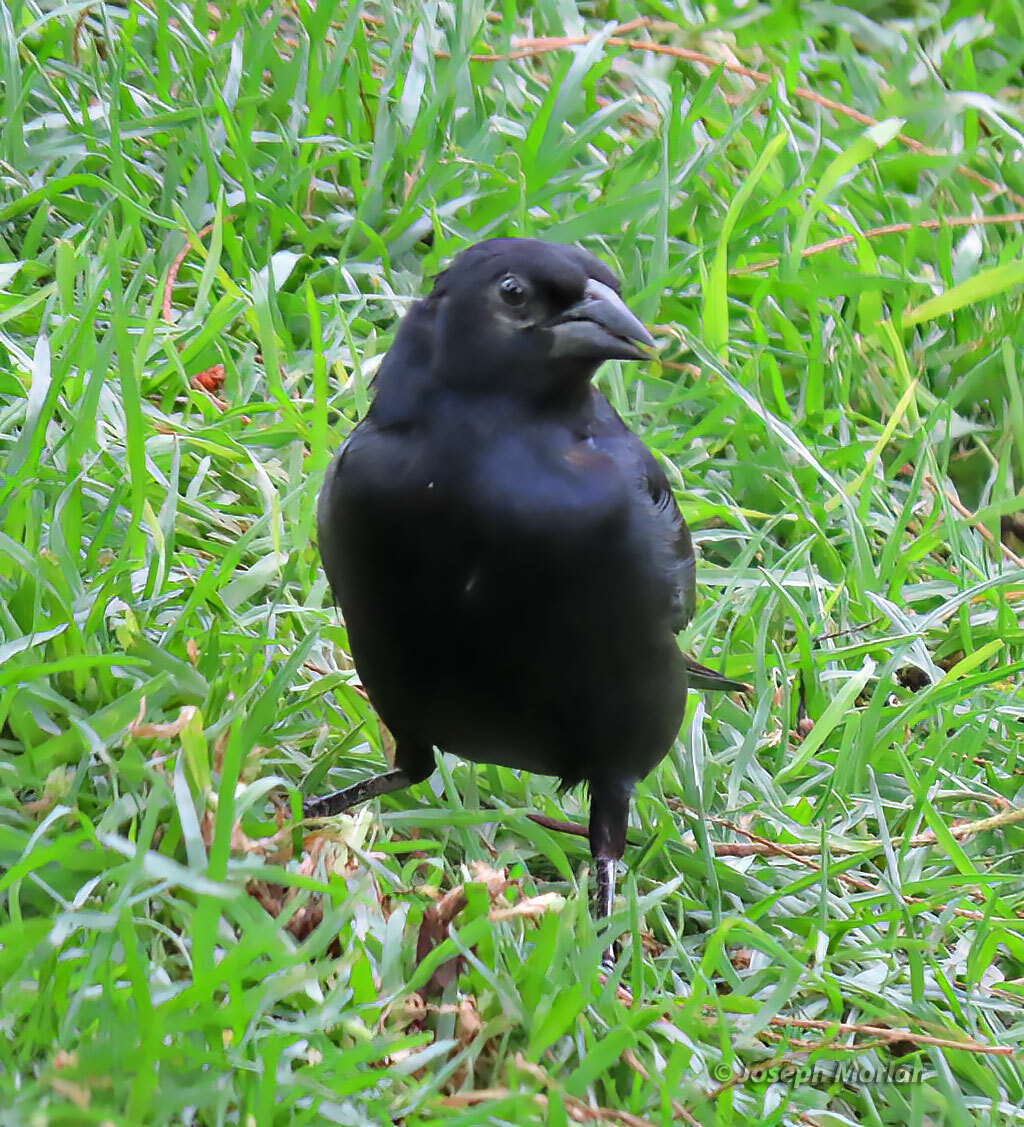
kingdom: Animalia
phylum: Chordata
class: Aves
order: Passeriformes
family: Icteridae
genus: Molothrus
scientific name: Molothrus bonariensis
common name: Shiny cowbird
